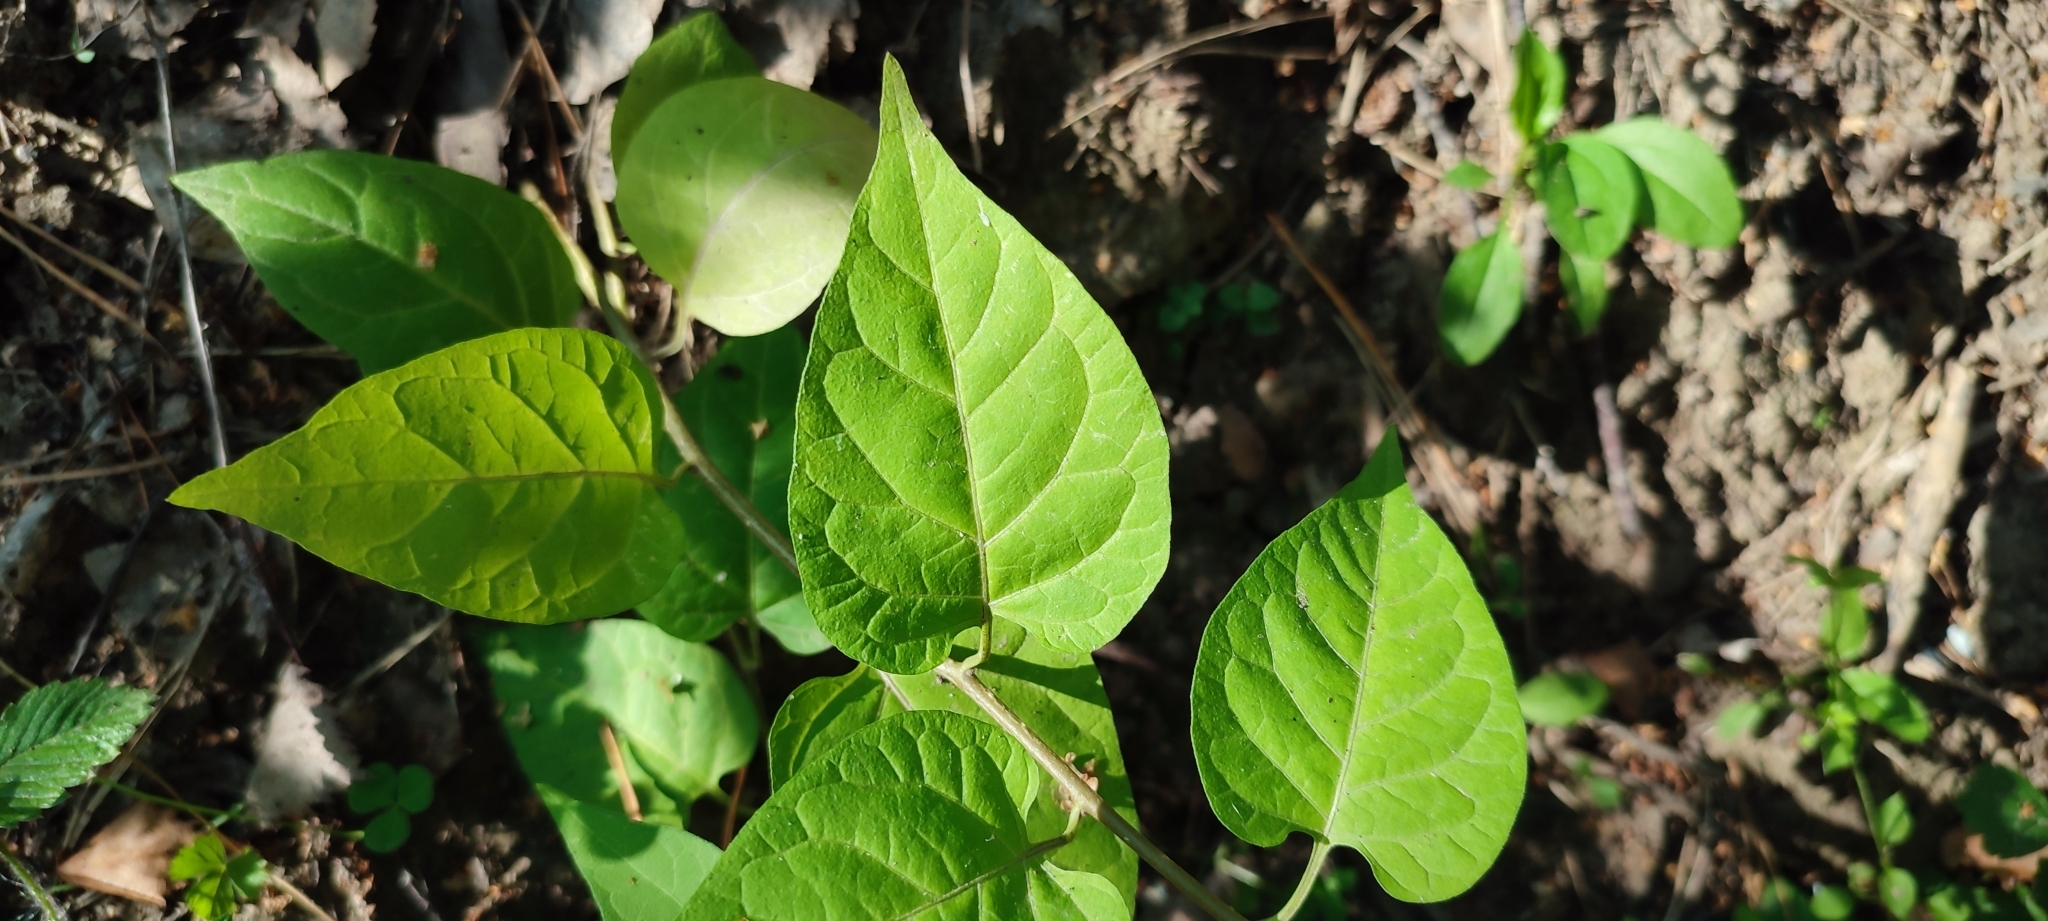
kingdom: Plantae
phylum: Tracheophyta
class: Magnoliopsida
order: Solanales
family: Solanaceae
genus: Solanum
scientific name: Solanum dulcamara
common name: Climbing nightshade
